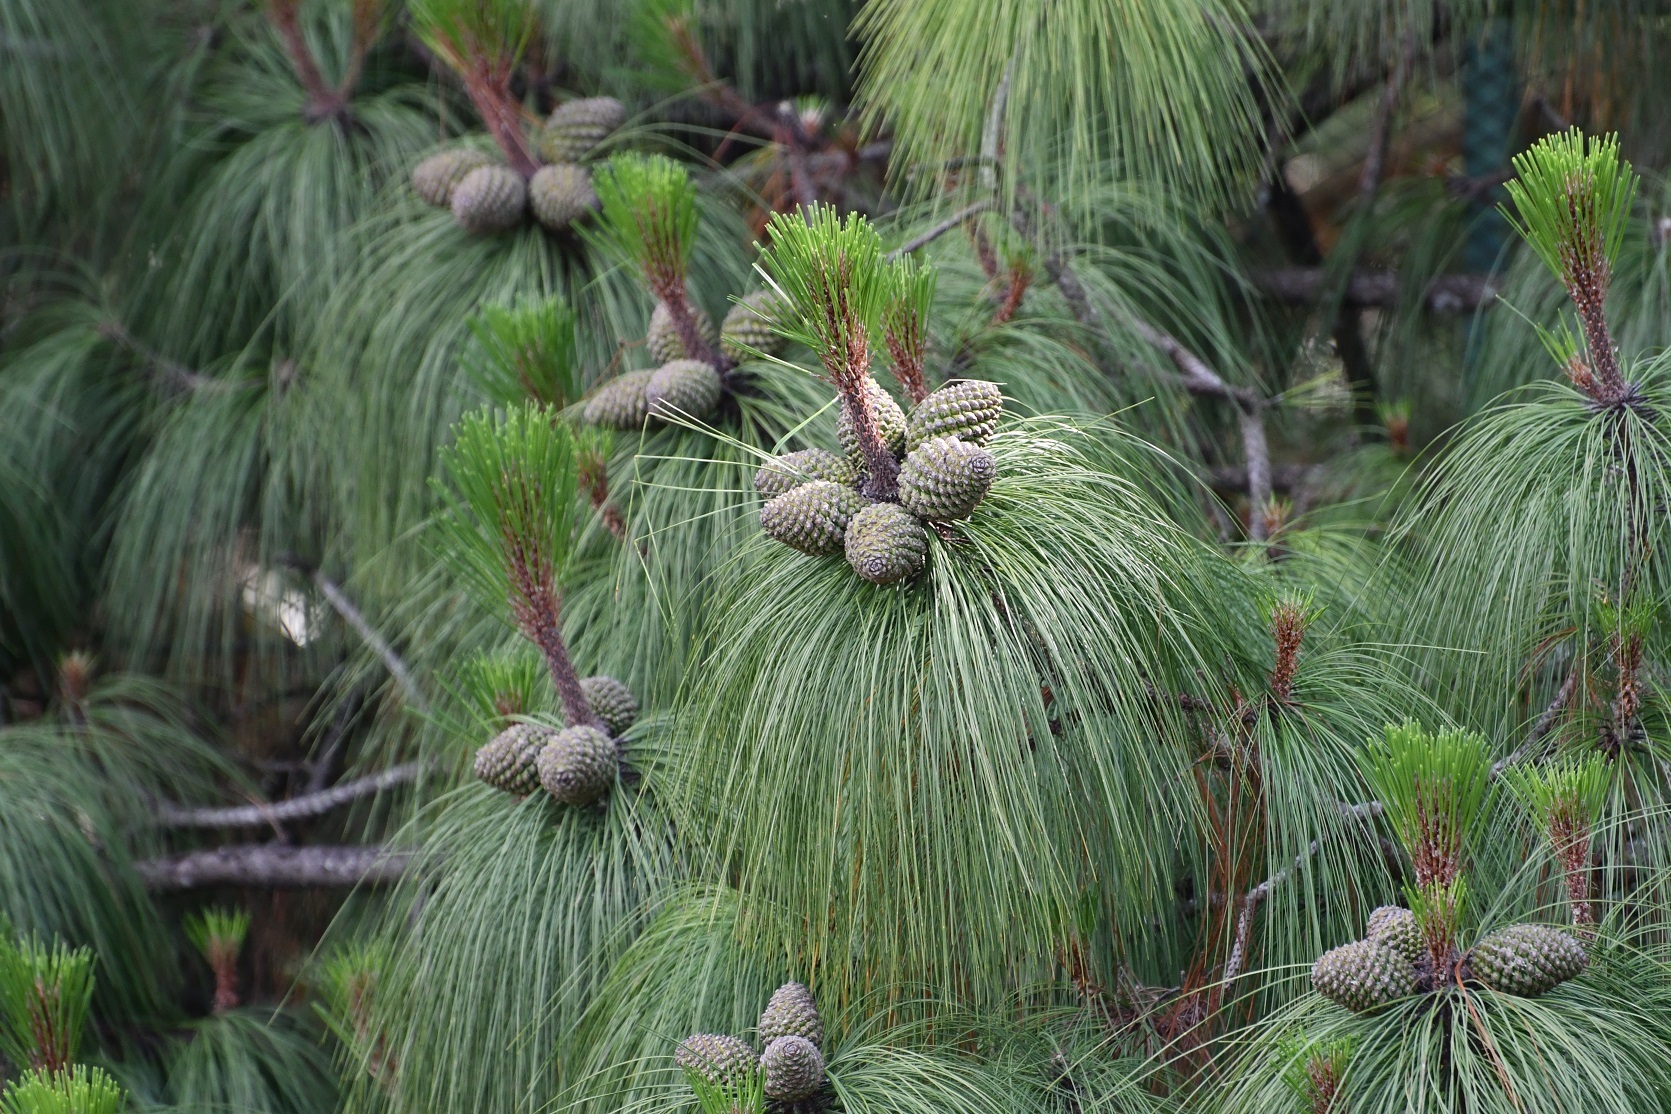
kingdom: Plantae
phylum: Tracheophyta
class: Pinopsida
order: Pinales
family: Pinaceae
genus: Pinus
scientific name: Pinus pseudostrobus
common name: False weymouth pine
